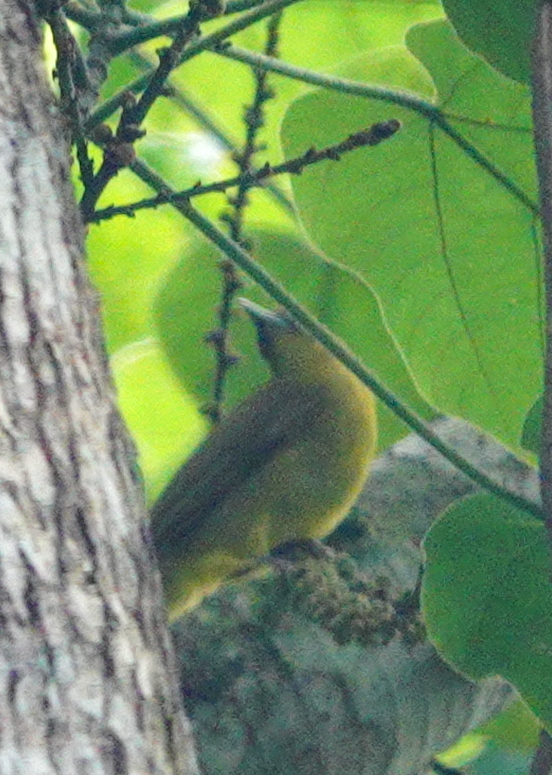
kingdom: Animalia
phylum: Chordata
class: Aves
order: Passeriformes
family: Pycnonotidae
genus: Thapsinillas
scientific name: Thapsinillas longirostris
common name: Northern golden bulbul
